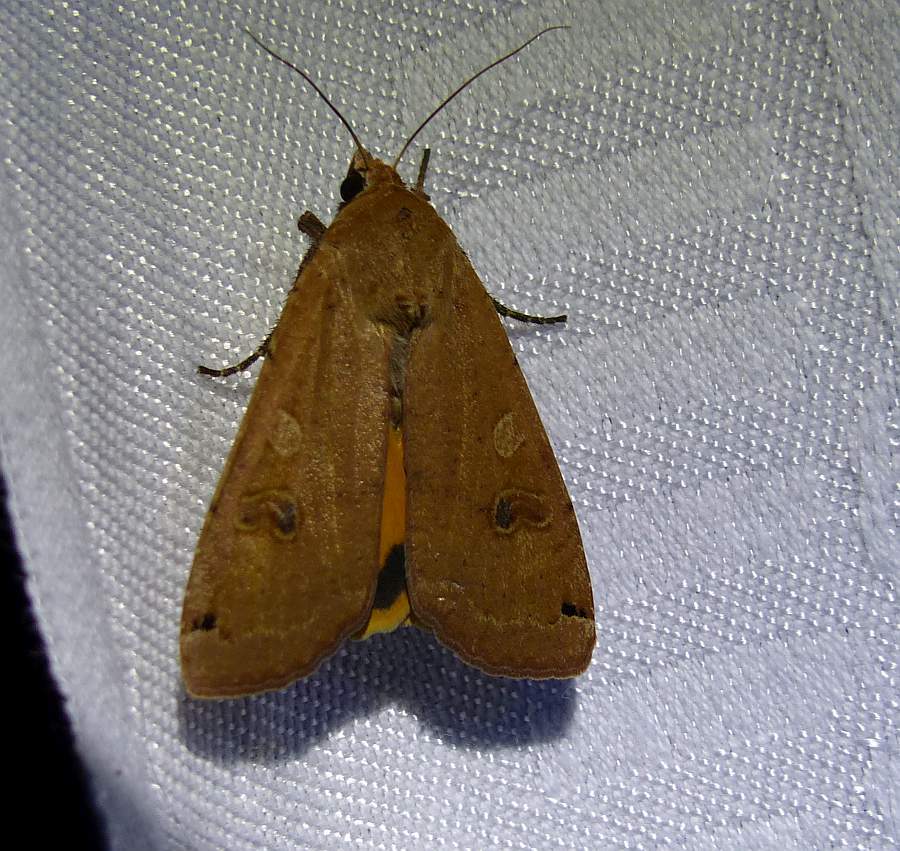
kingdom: Animalia
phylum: Arthropoda
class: Insecta
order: Lepidoptera
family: Noctuidae
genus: Noctua
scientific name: Noctua pronuba
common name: Large yellow underwing
